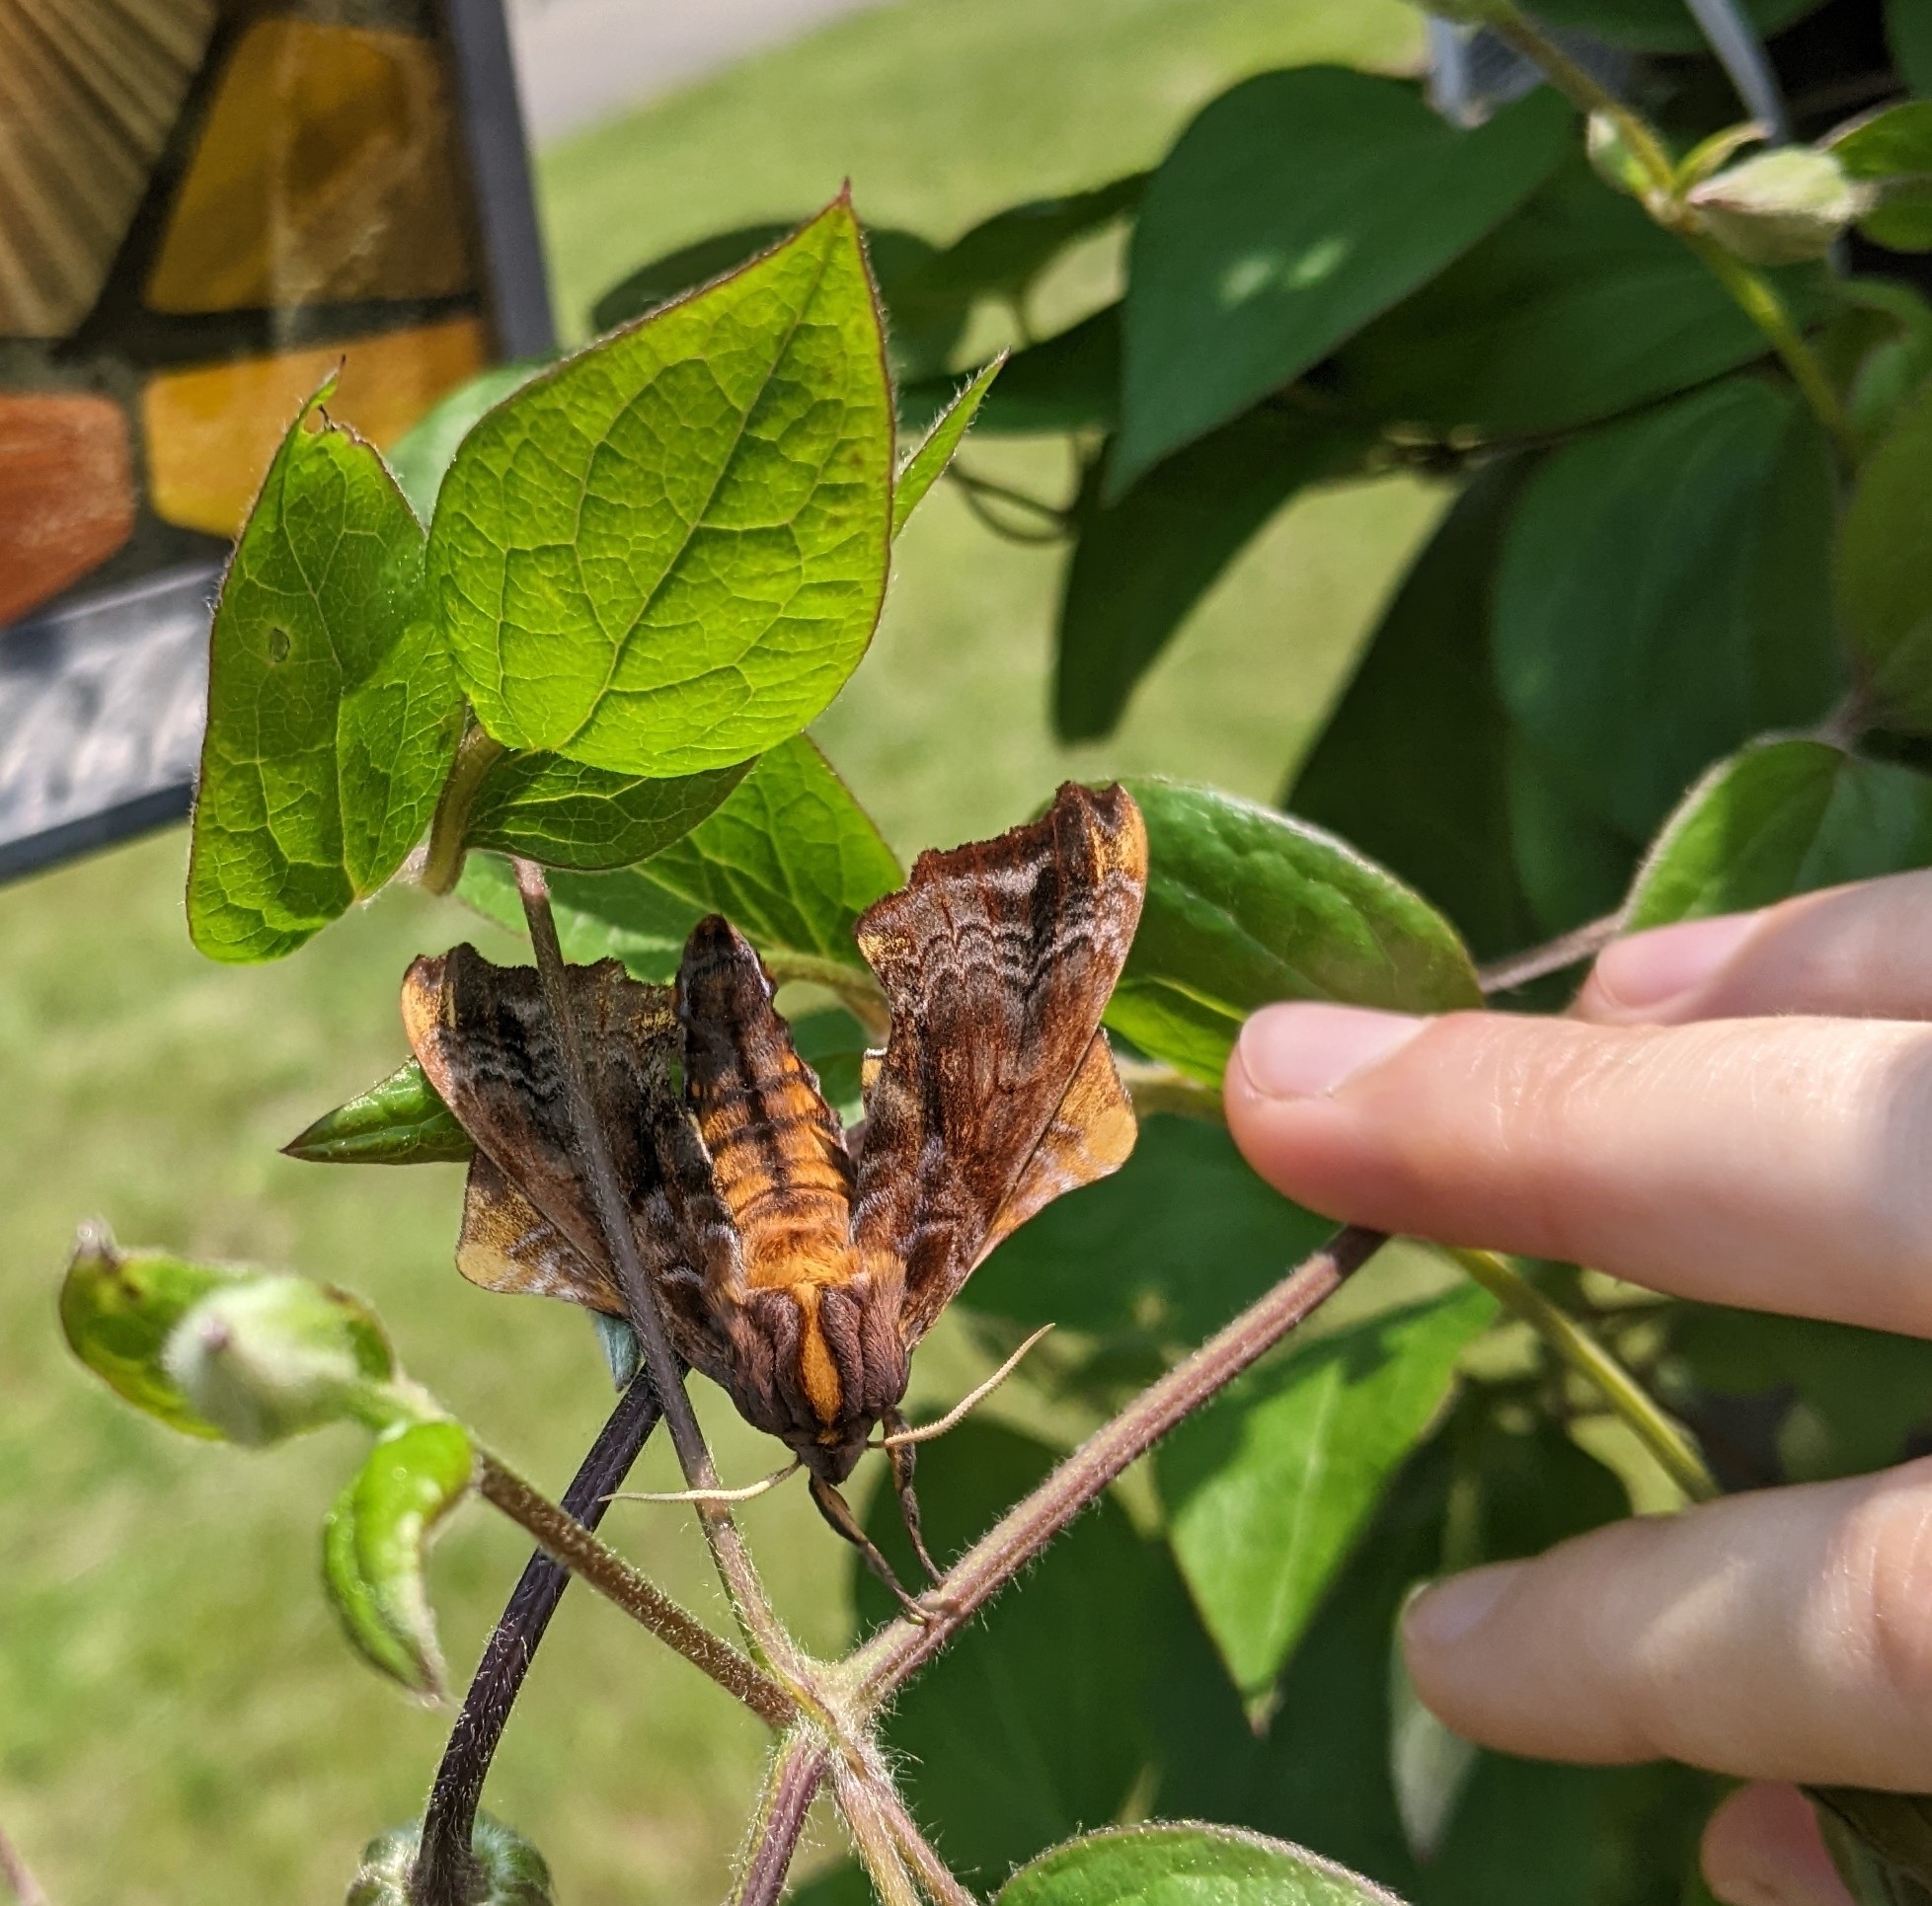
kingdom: Animalia
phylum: Arthropoda
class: Insecta
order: Lepidoptera
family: Sphingidae
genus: Paonias
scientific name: Paonias myops
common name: Small-eyed sphinx
